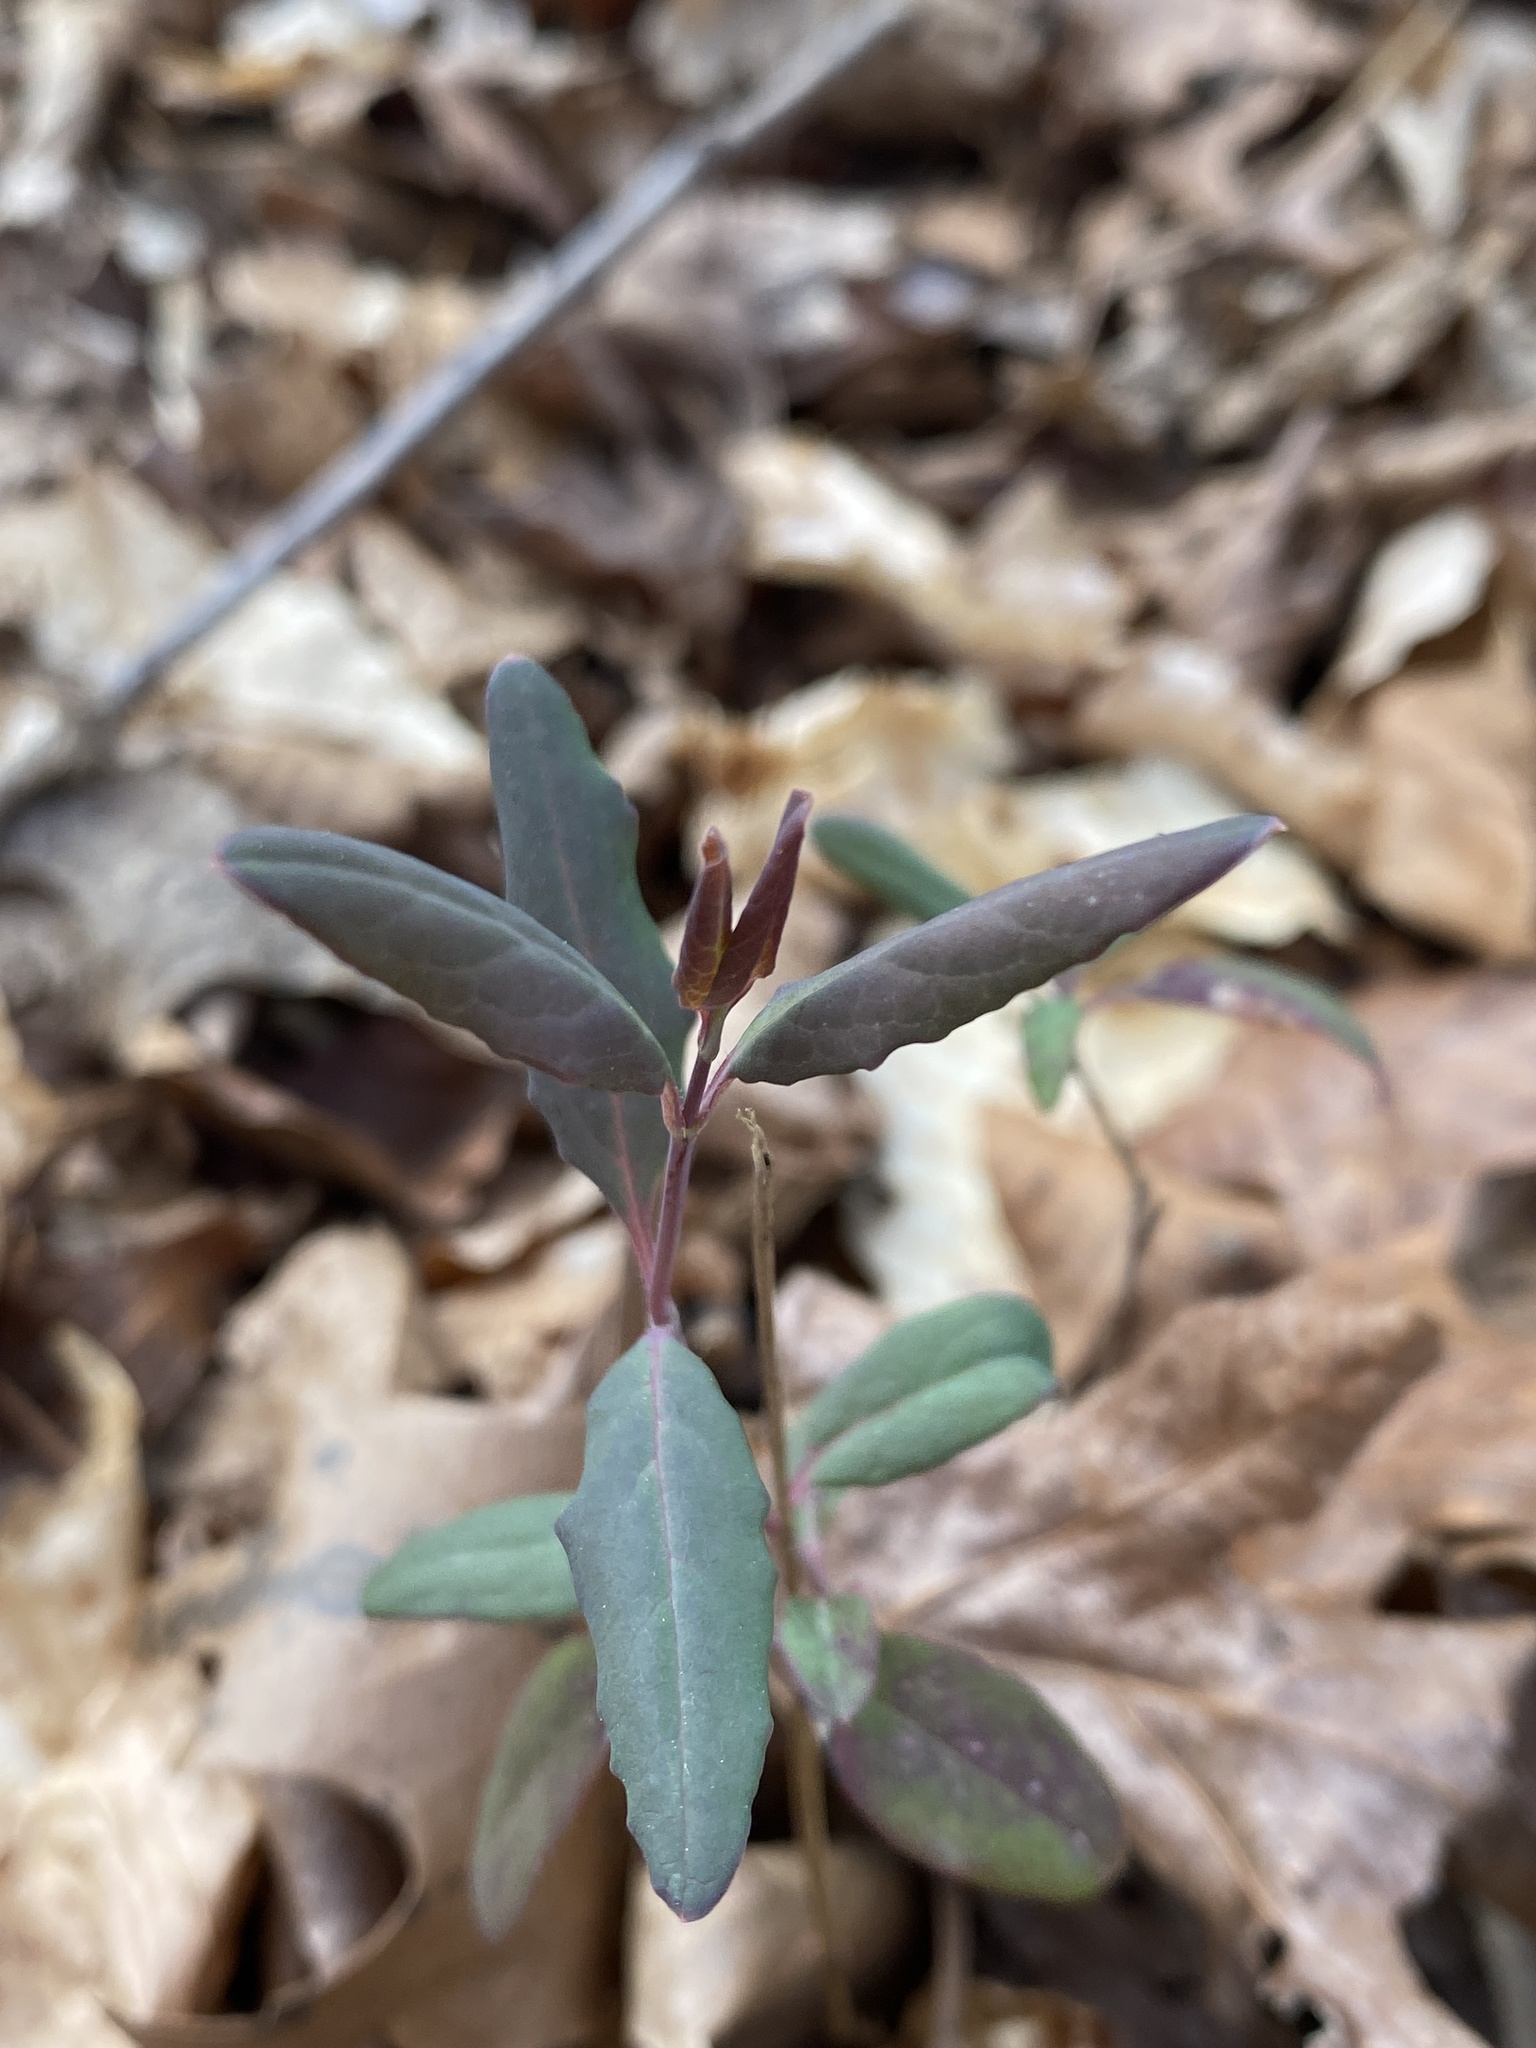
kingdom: Plantae
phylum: Tracheophyta
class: Magnoliopsida
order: Dipsacales
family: Caprifoliaceae
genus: Lonicera
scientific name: Lonicera sempervirens
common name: Coral honeysuckle
